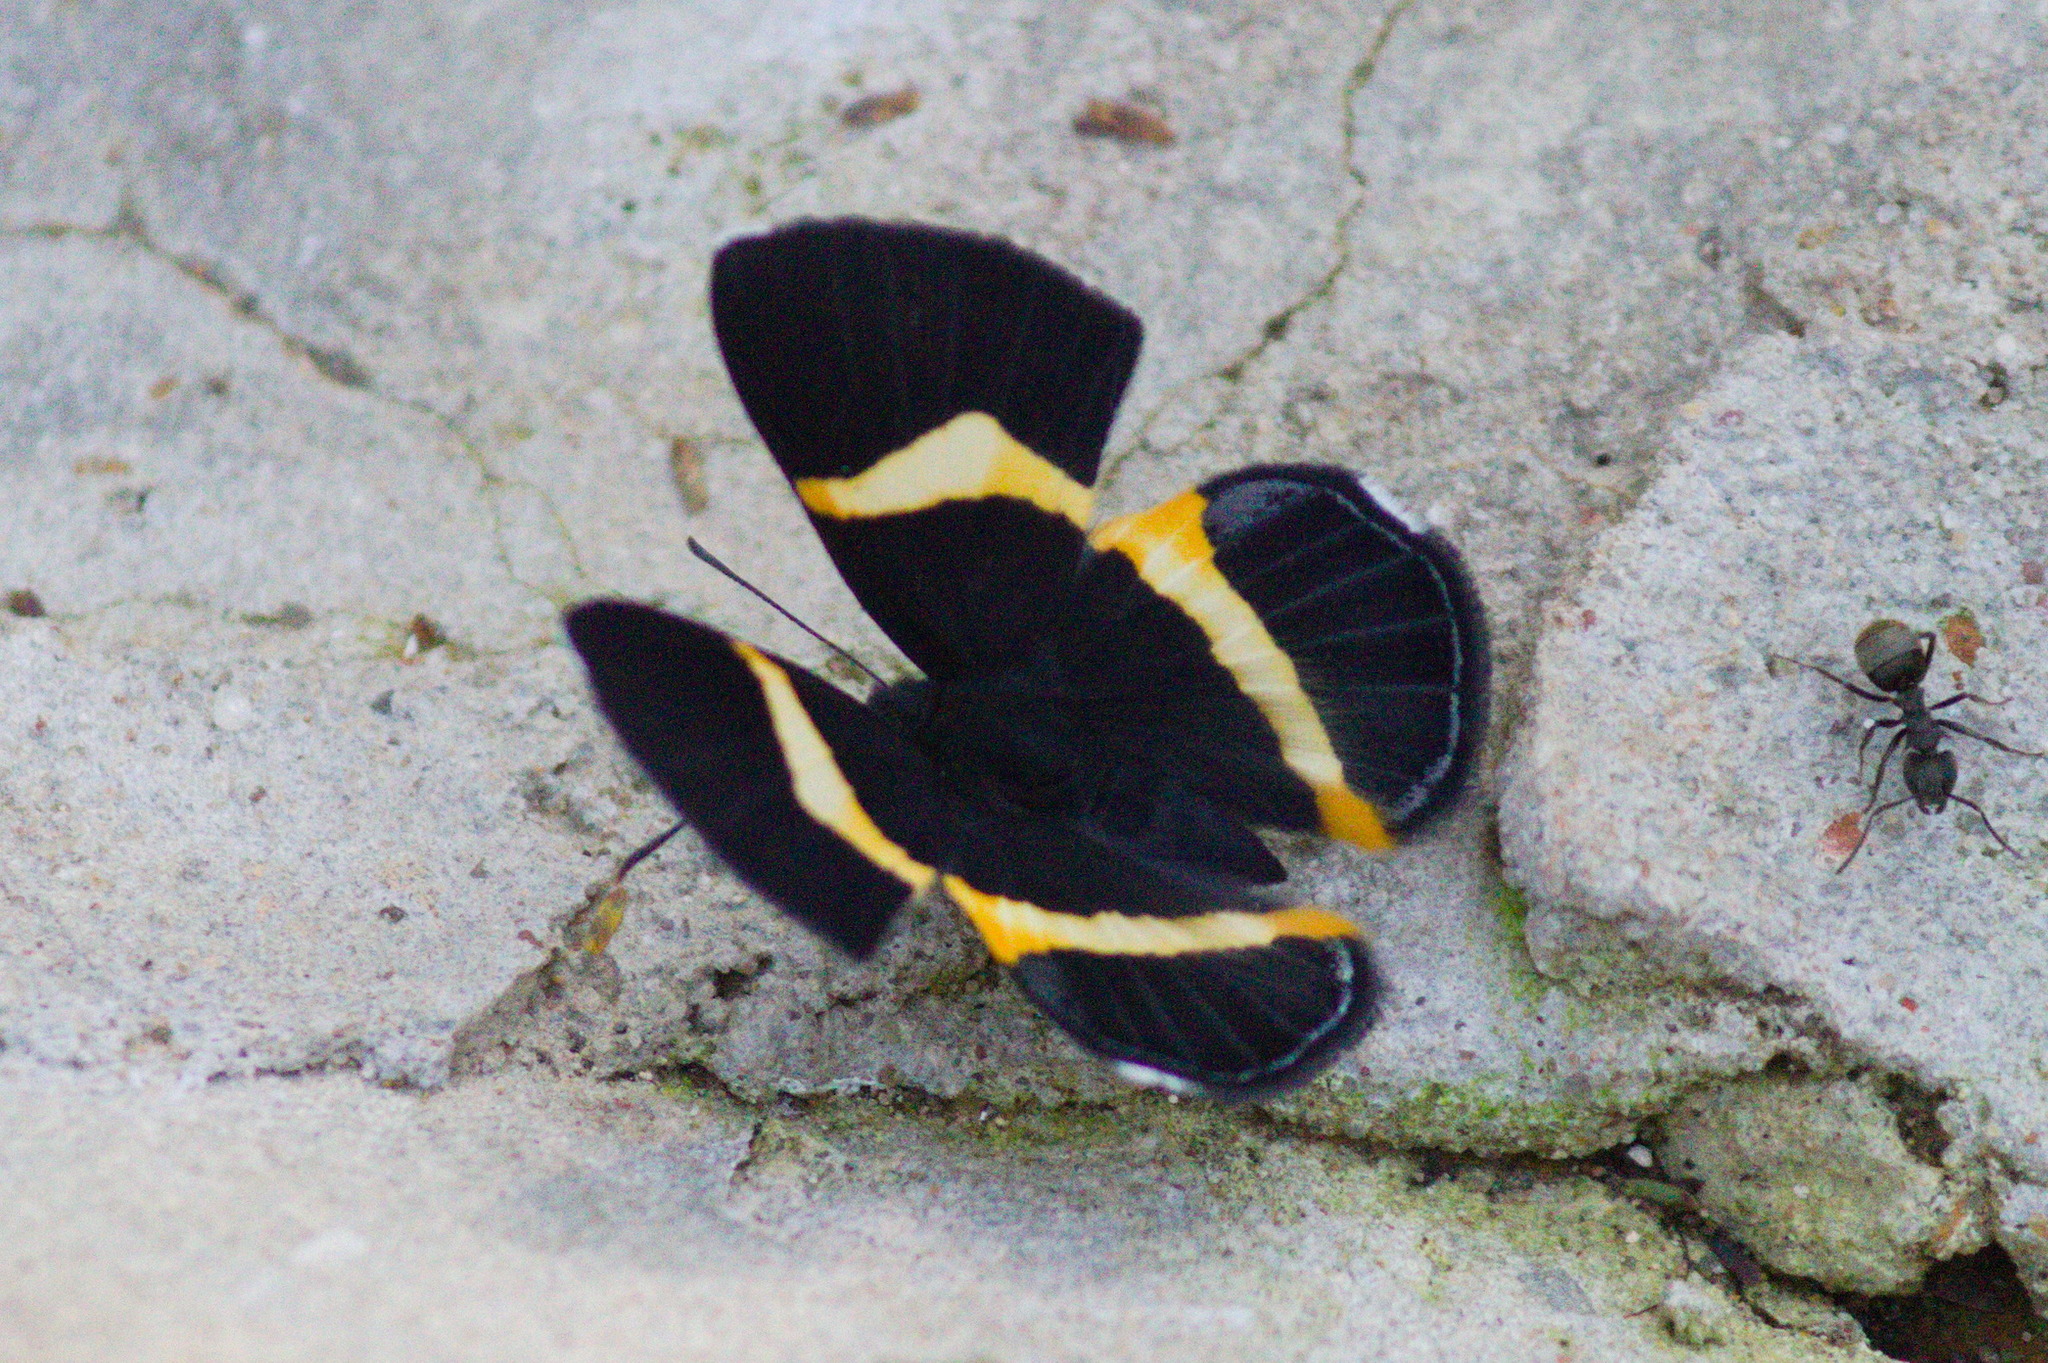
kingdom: Animalia
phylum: Arthropoda
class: Insecta
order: Lepidoptera
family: Riodinidae
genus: Notheme
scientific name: Notheme eumeus
